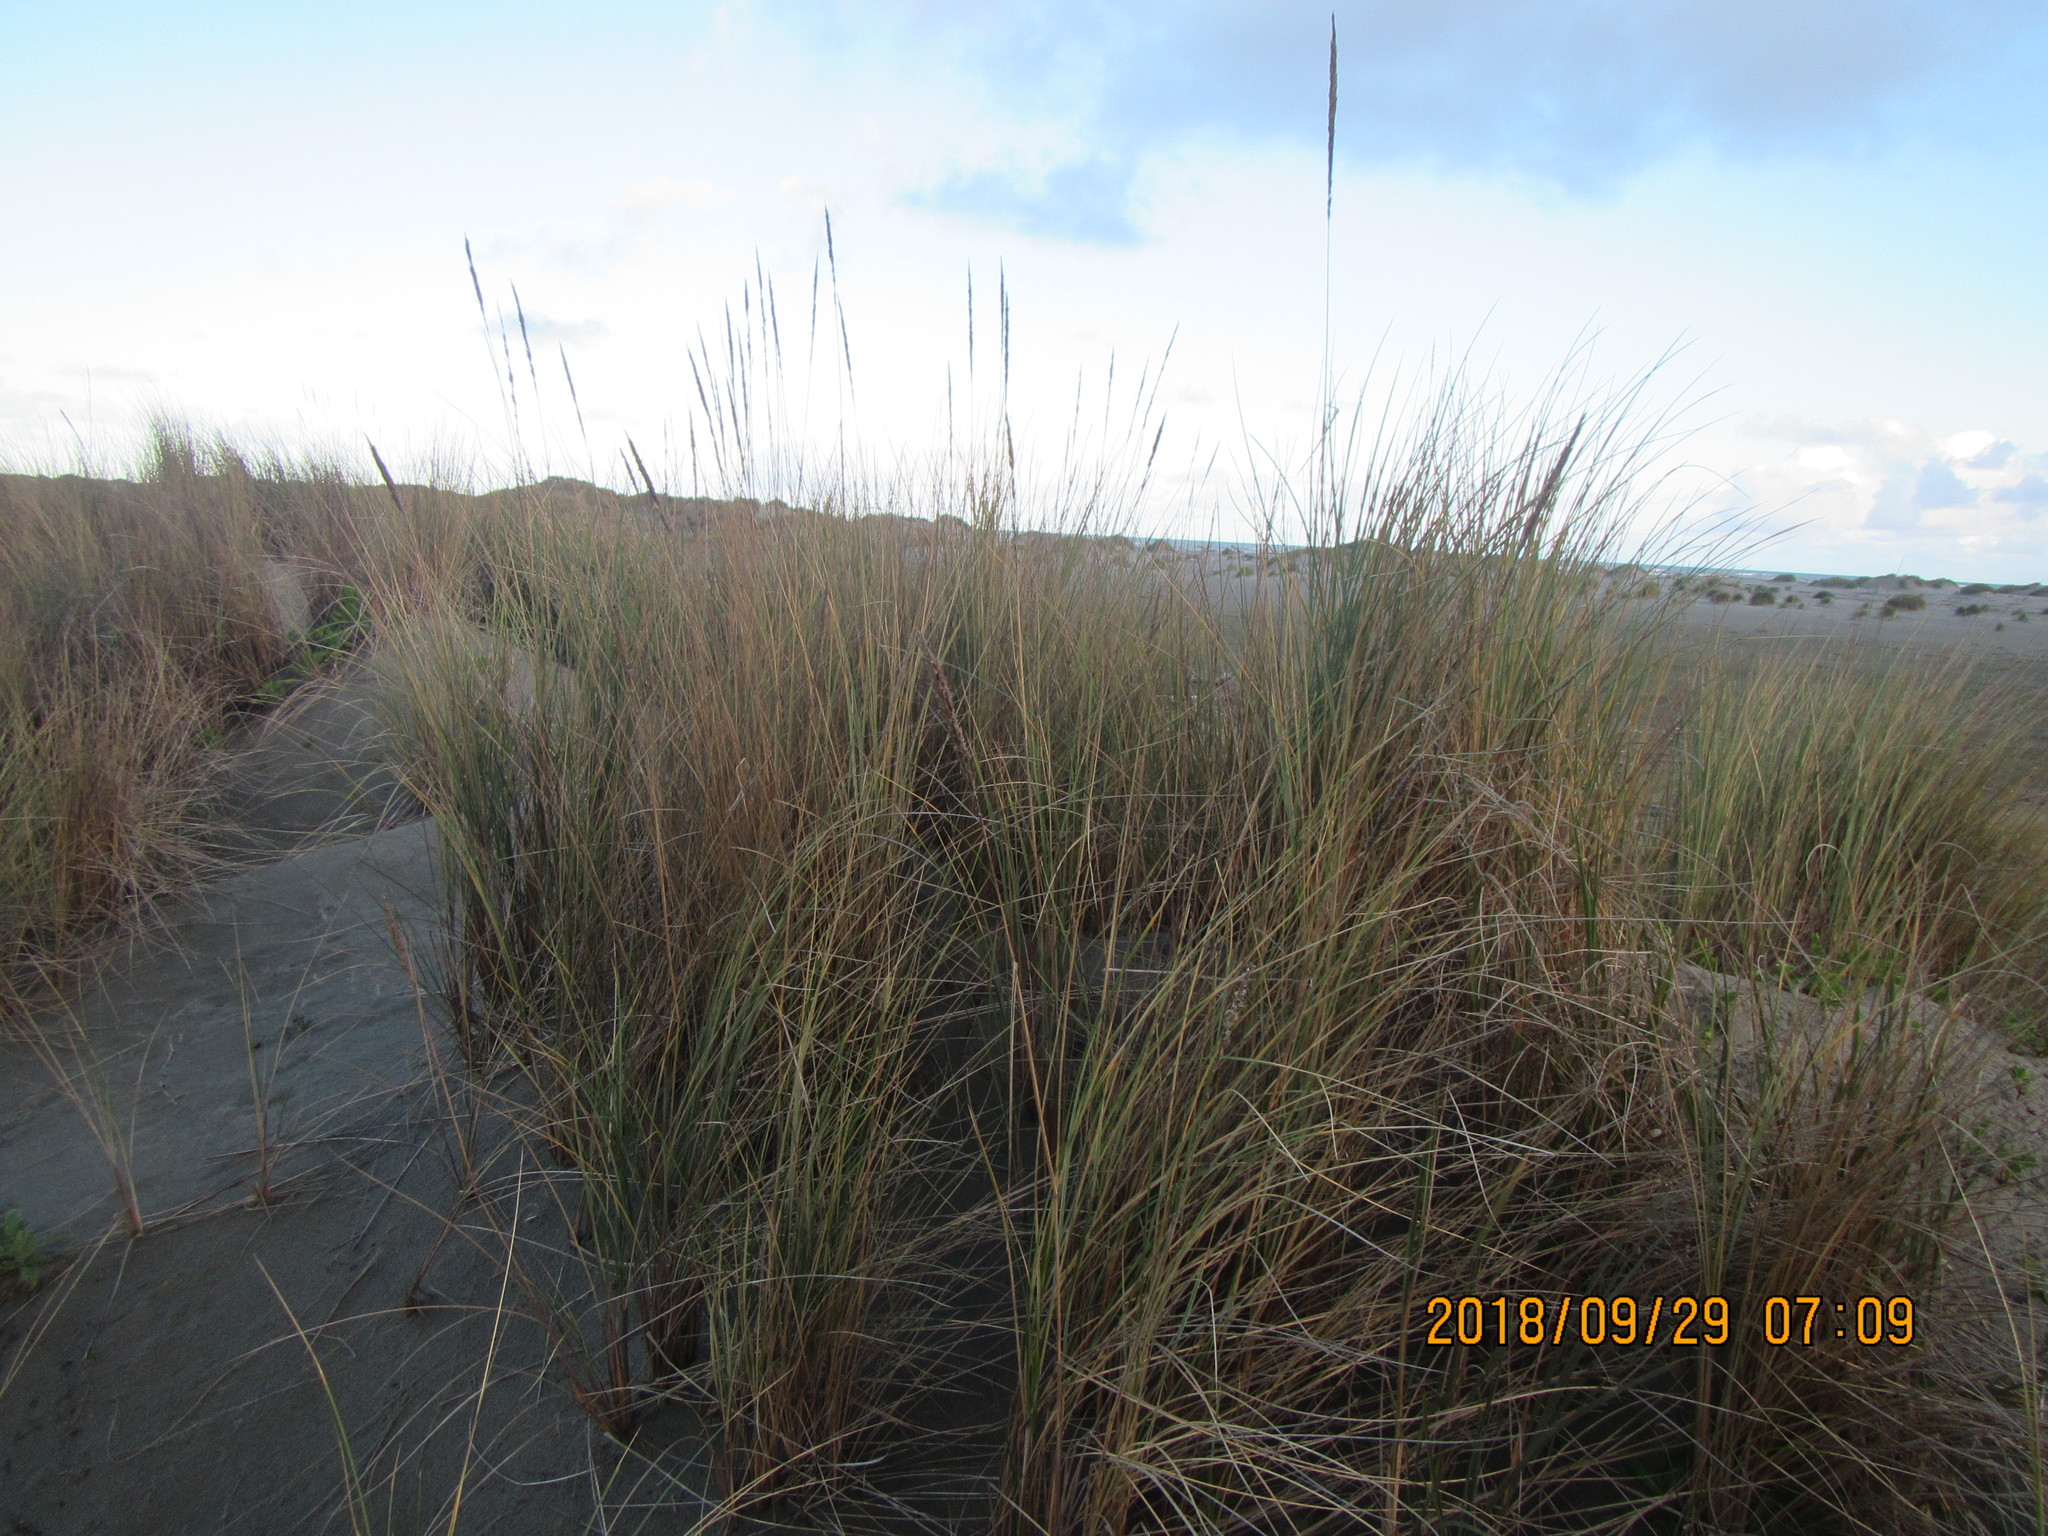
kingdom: Plantae
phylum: Tracheophyta
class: Liliopsida
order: Poales
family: Poaceae
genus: Calamagrostis
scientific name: Calamagrostis arenaria
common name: European beachgrass
